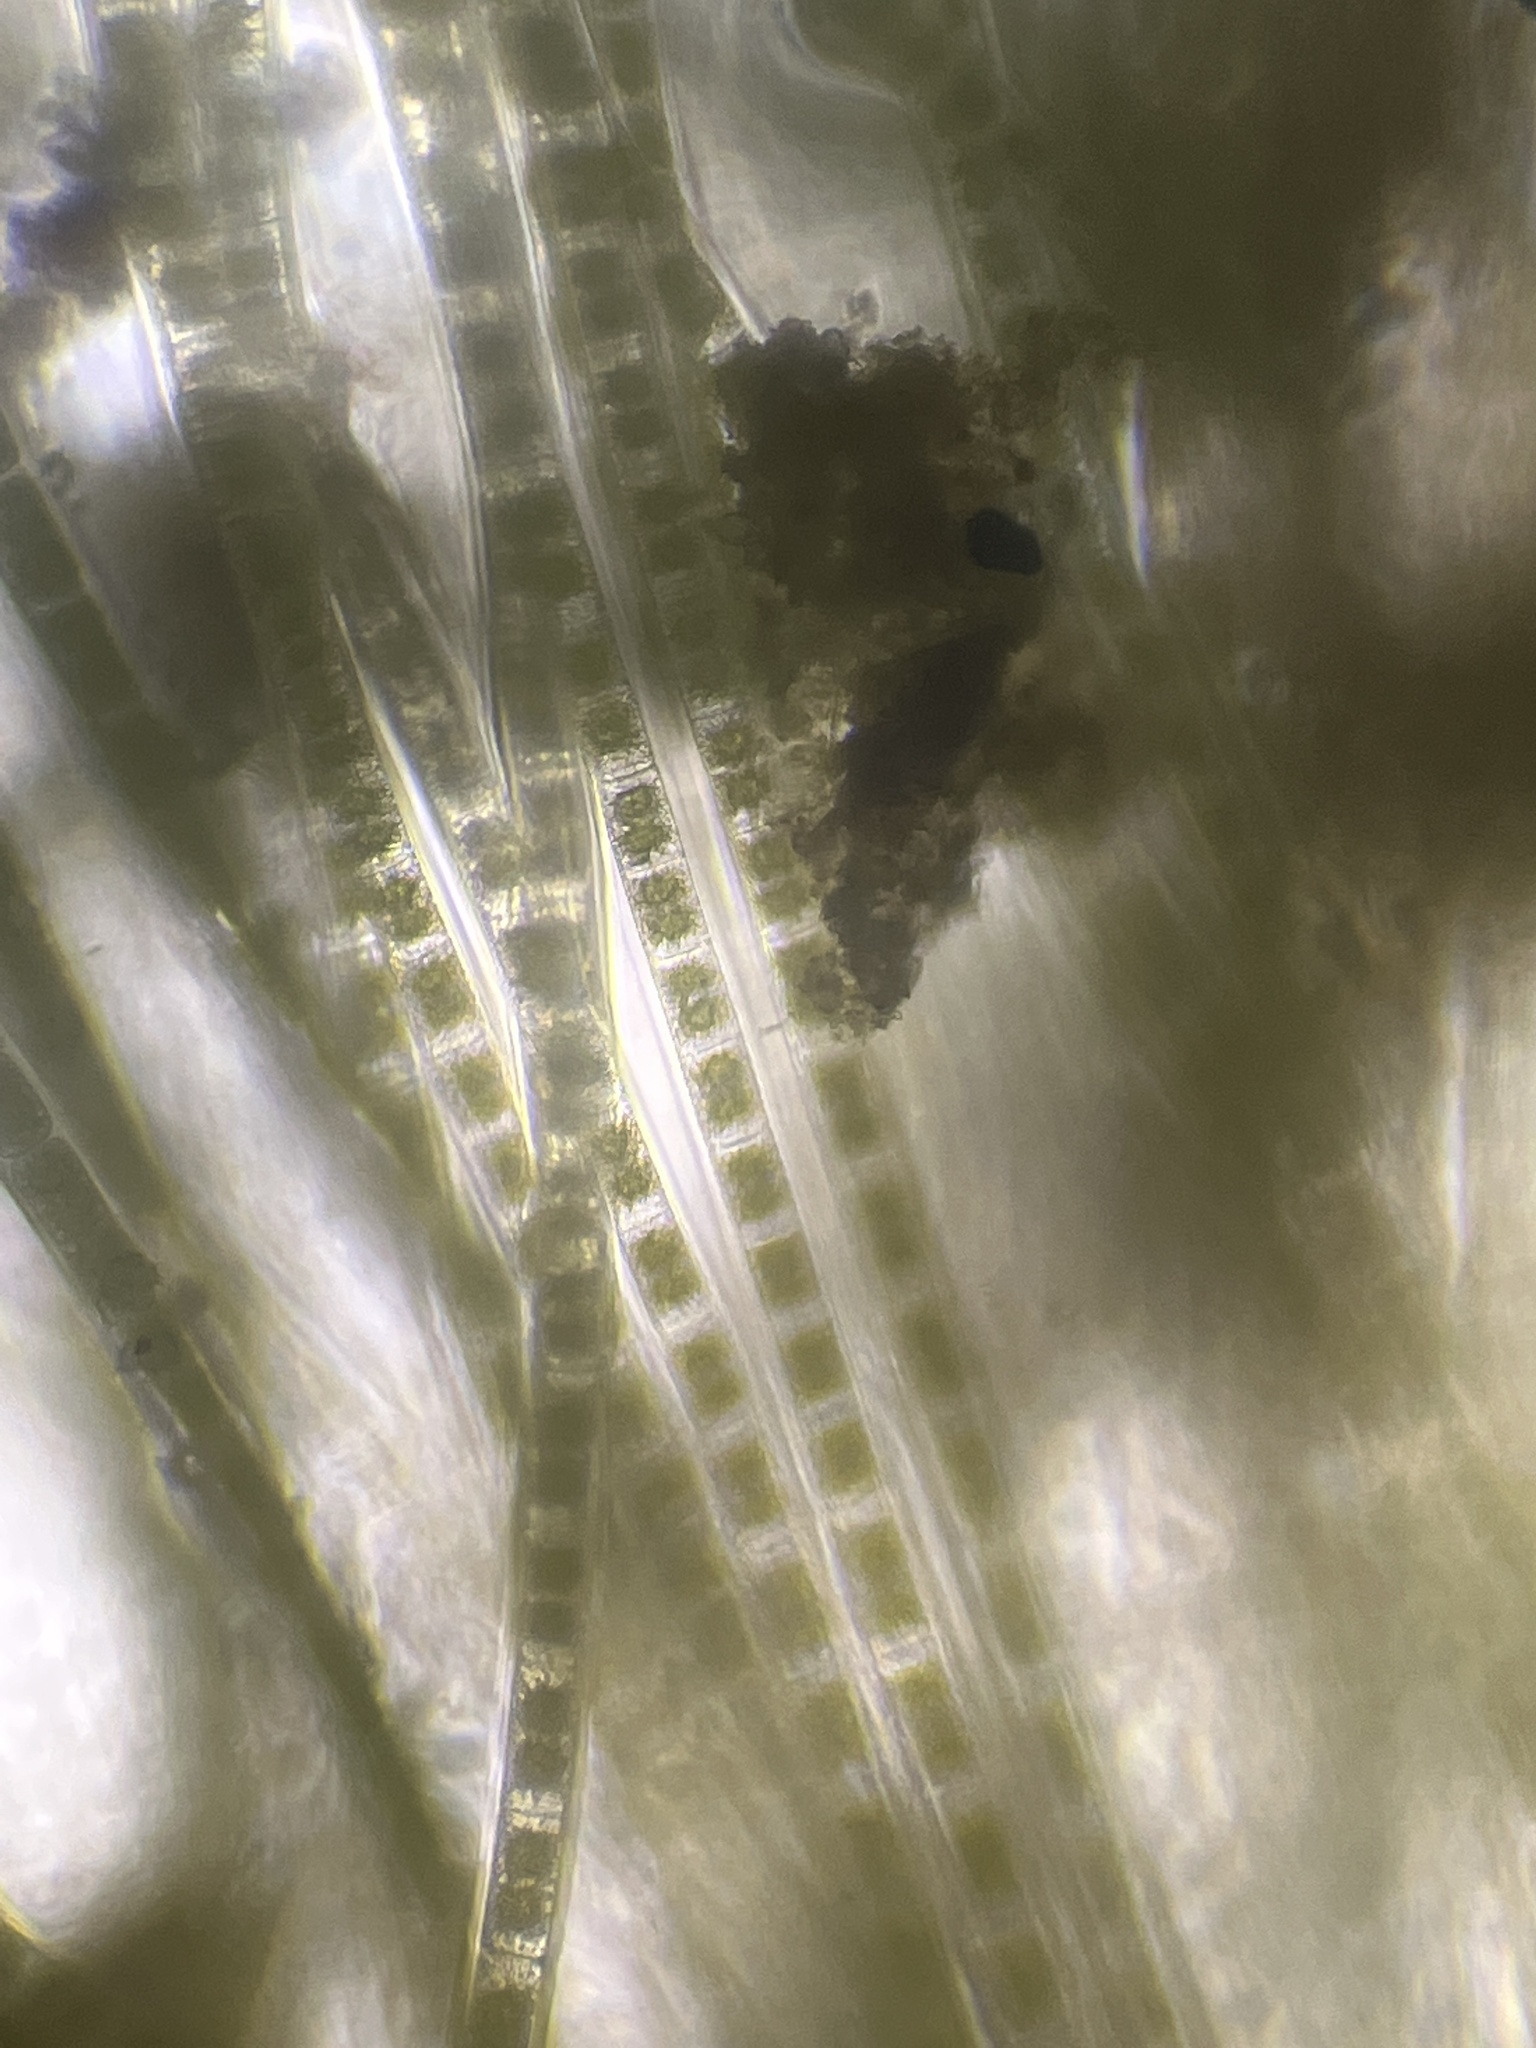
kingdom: Plantae
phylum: Charophyta
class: Zygnematophyceae
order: Zygnematales
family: Zygnemataceae
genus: Zygnema
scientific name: Zygnema
